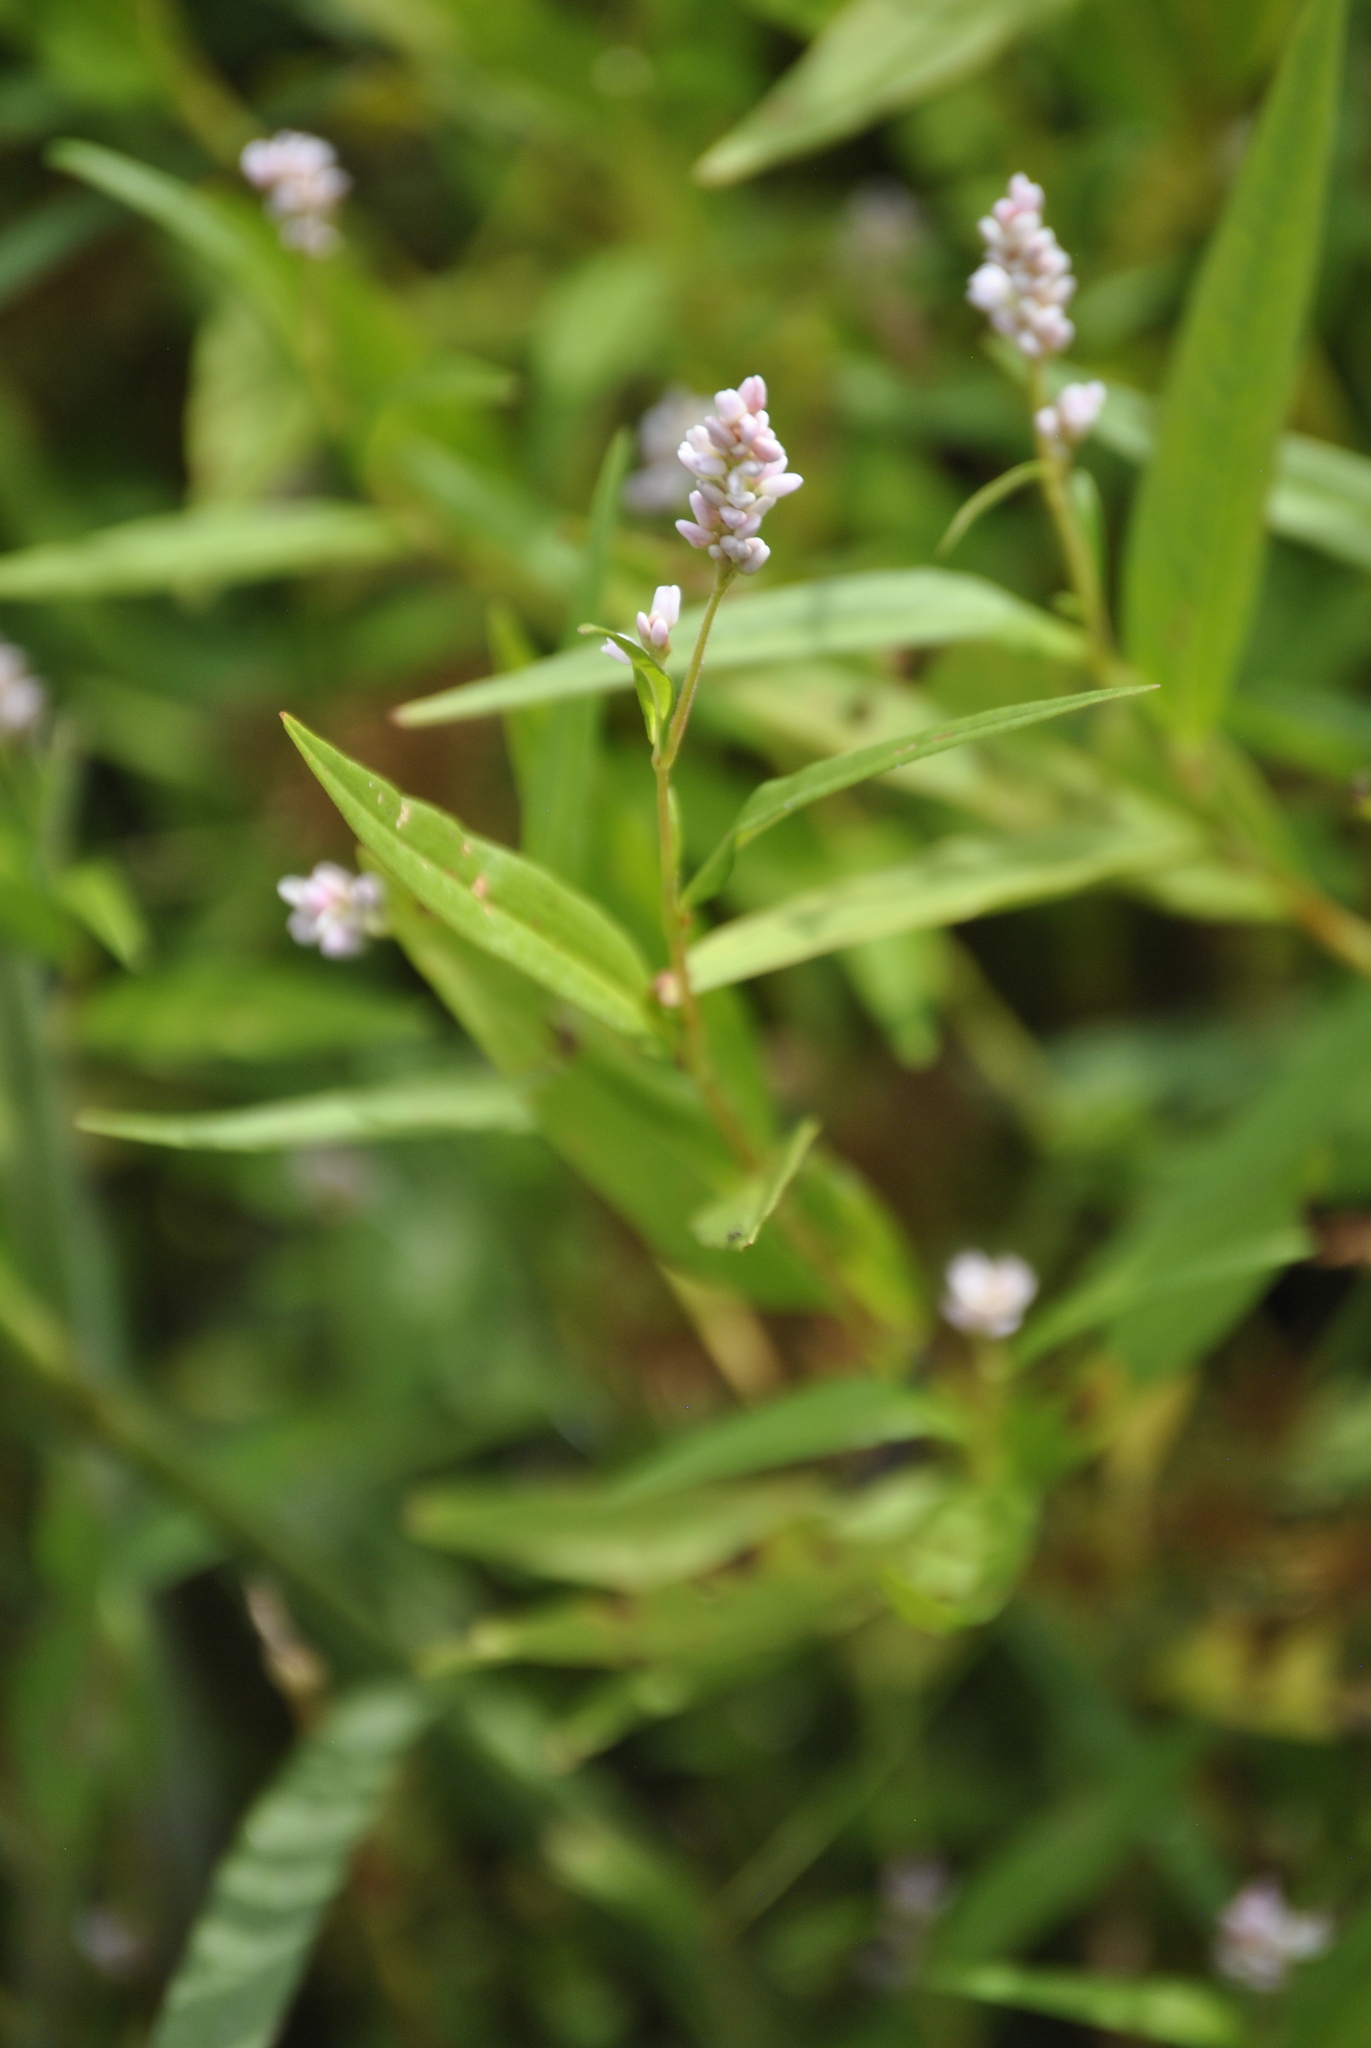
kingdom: Plantae
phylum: Tracheophyta
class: Magnoliopsida
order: Caryophyllales
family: Polygonaceae
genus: Persicaria
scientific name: Persicaria pensylvanica
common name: Pinkweed
